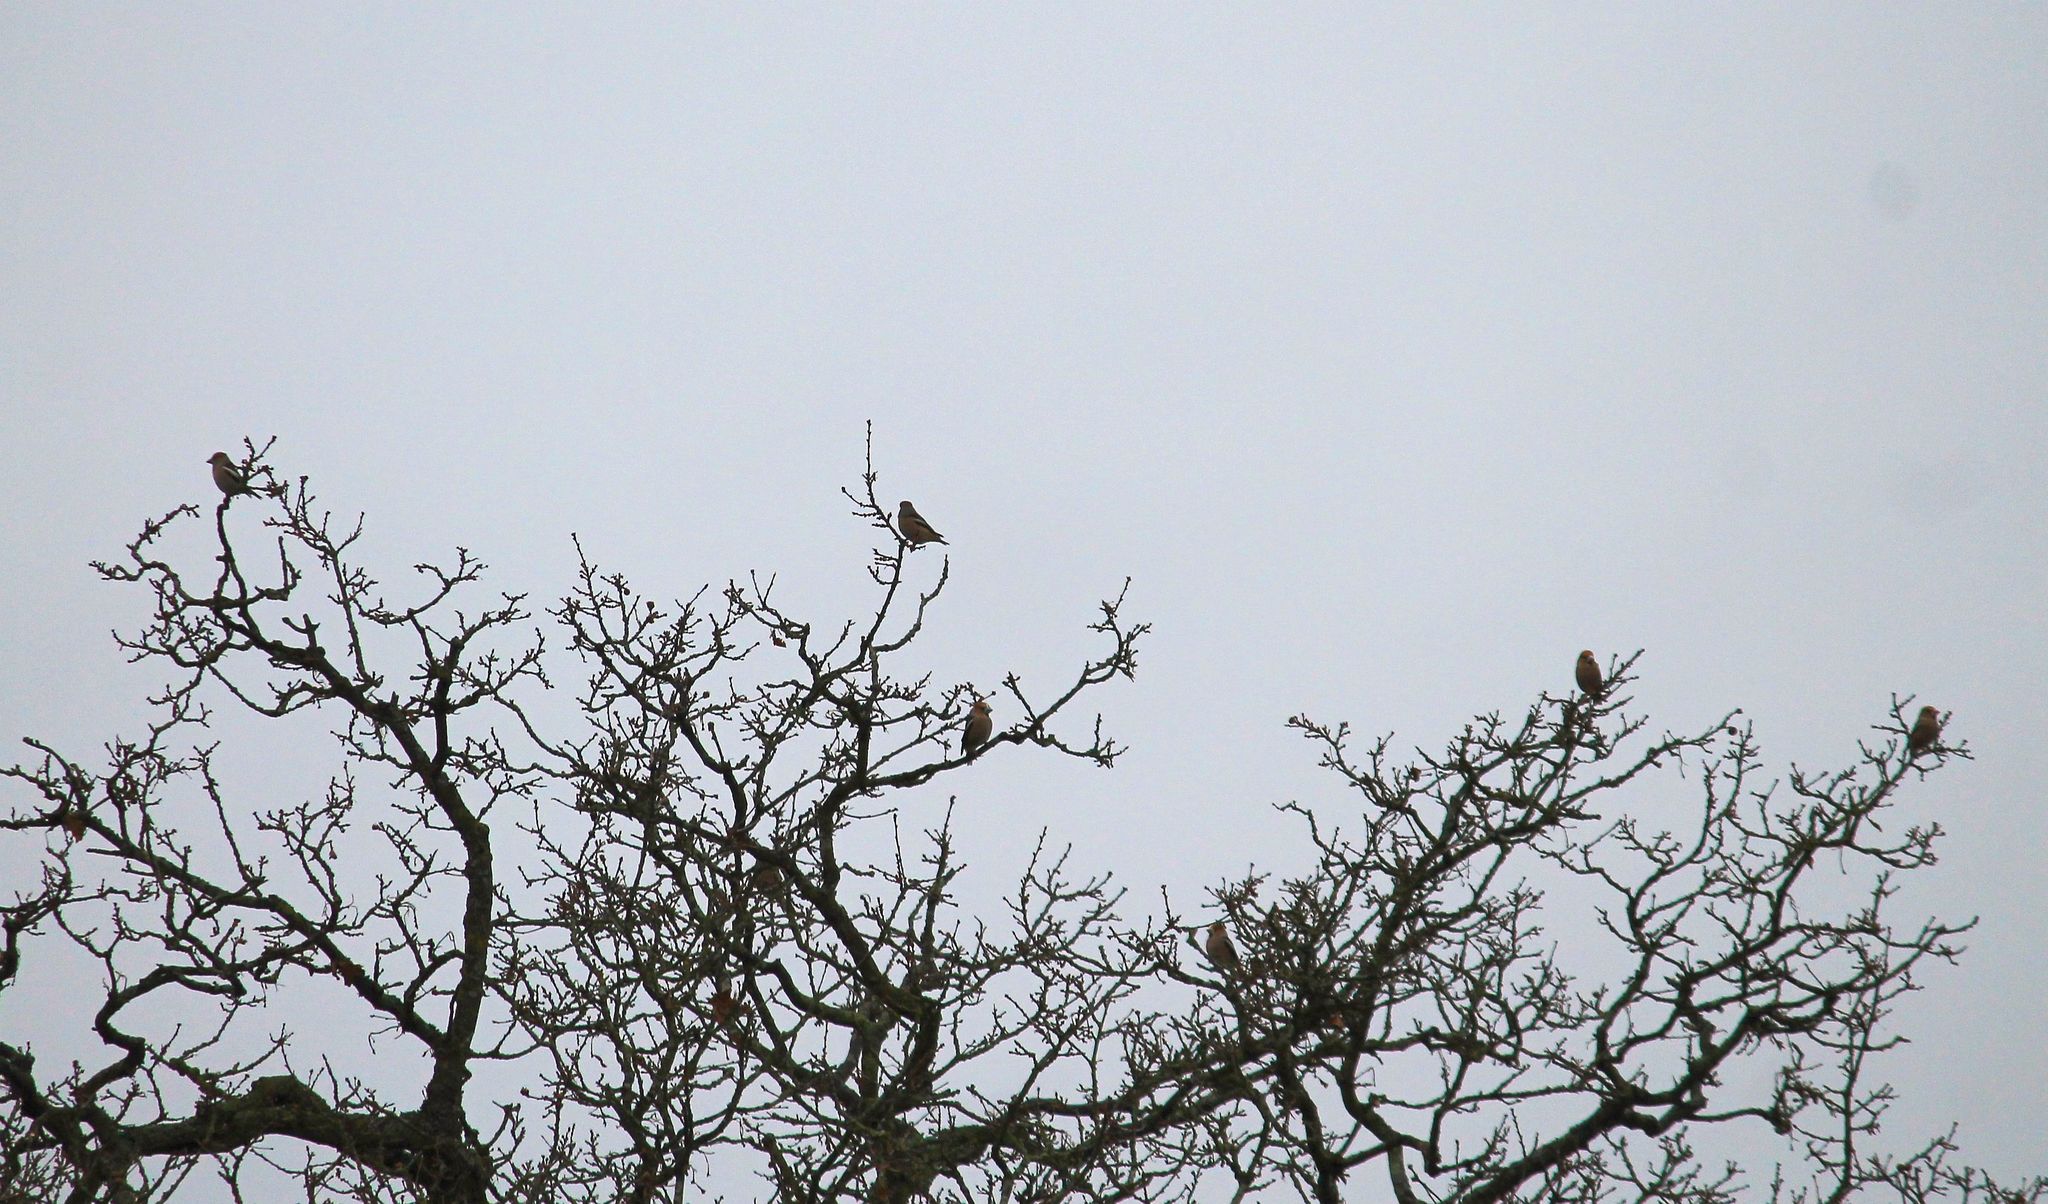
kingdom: Animalia
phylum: Chordata
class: Aves
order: Passeriformes
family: Fringillidae
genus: Coccothraustes
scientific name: Coccothraustes coccothraustes
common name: Hawfinch
